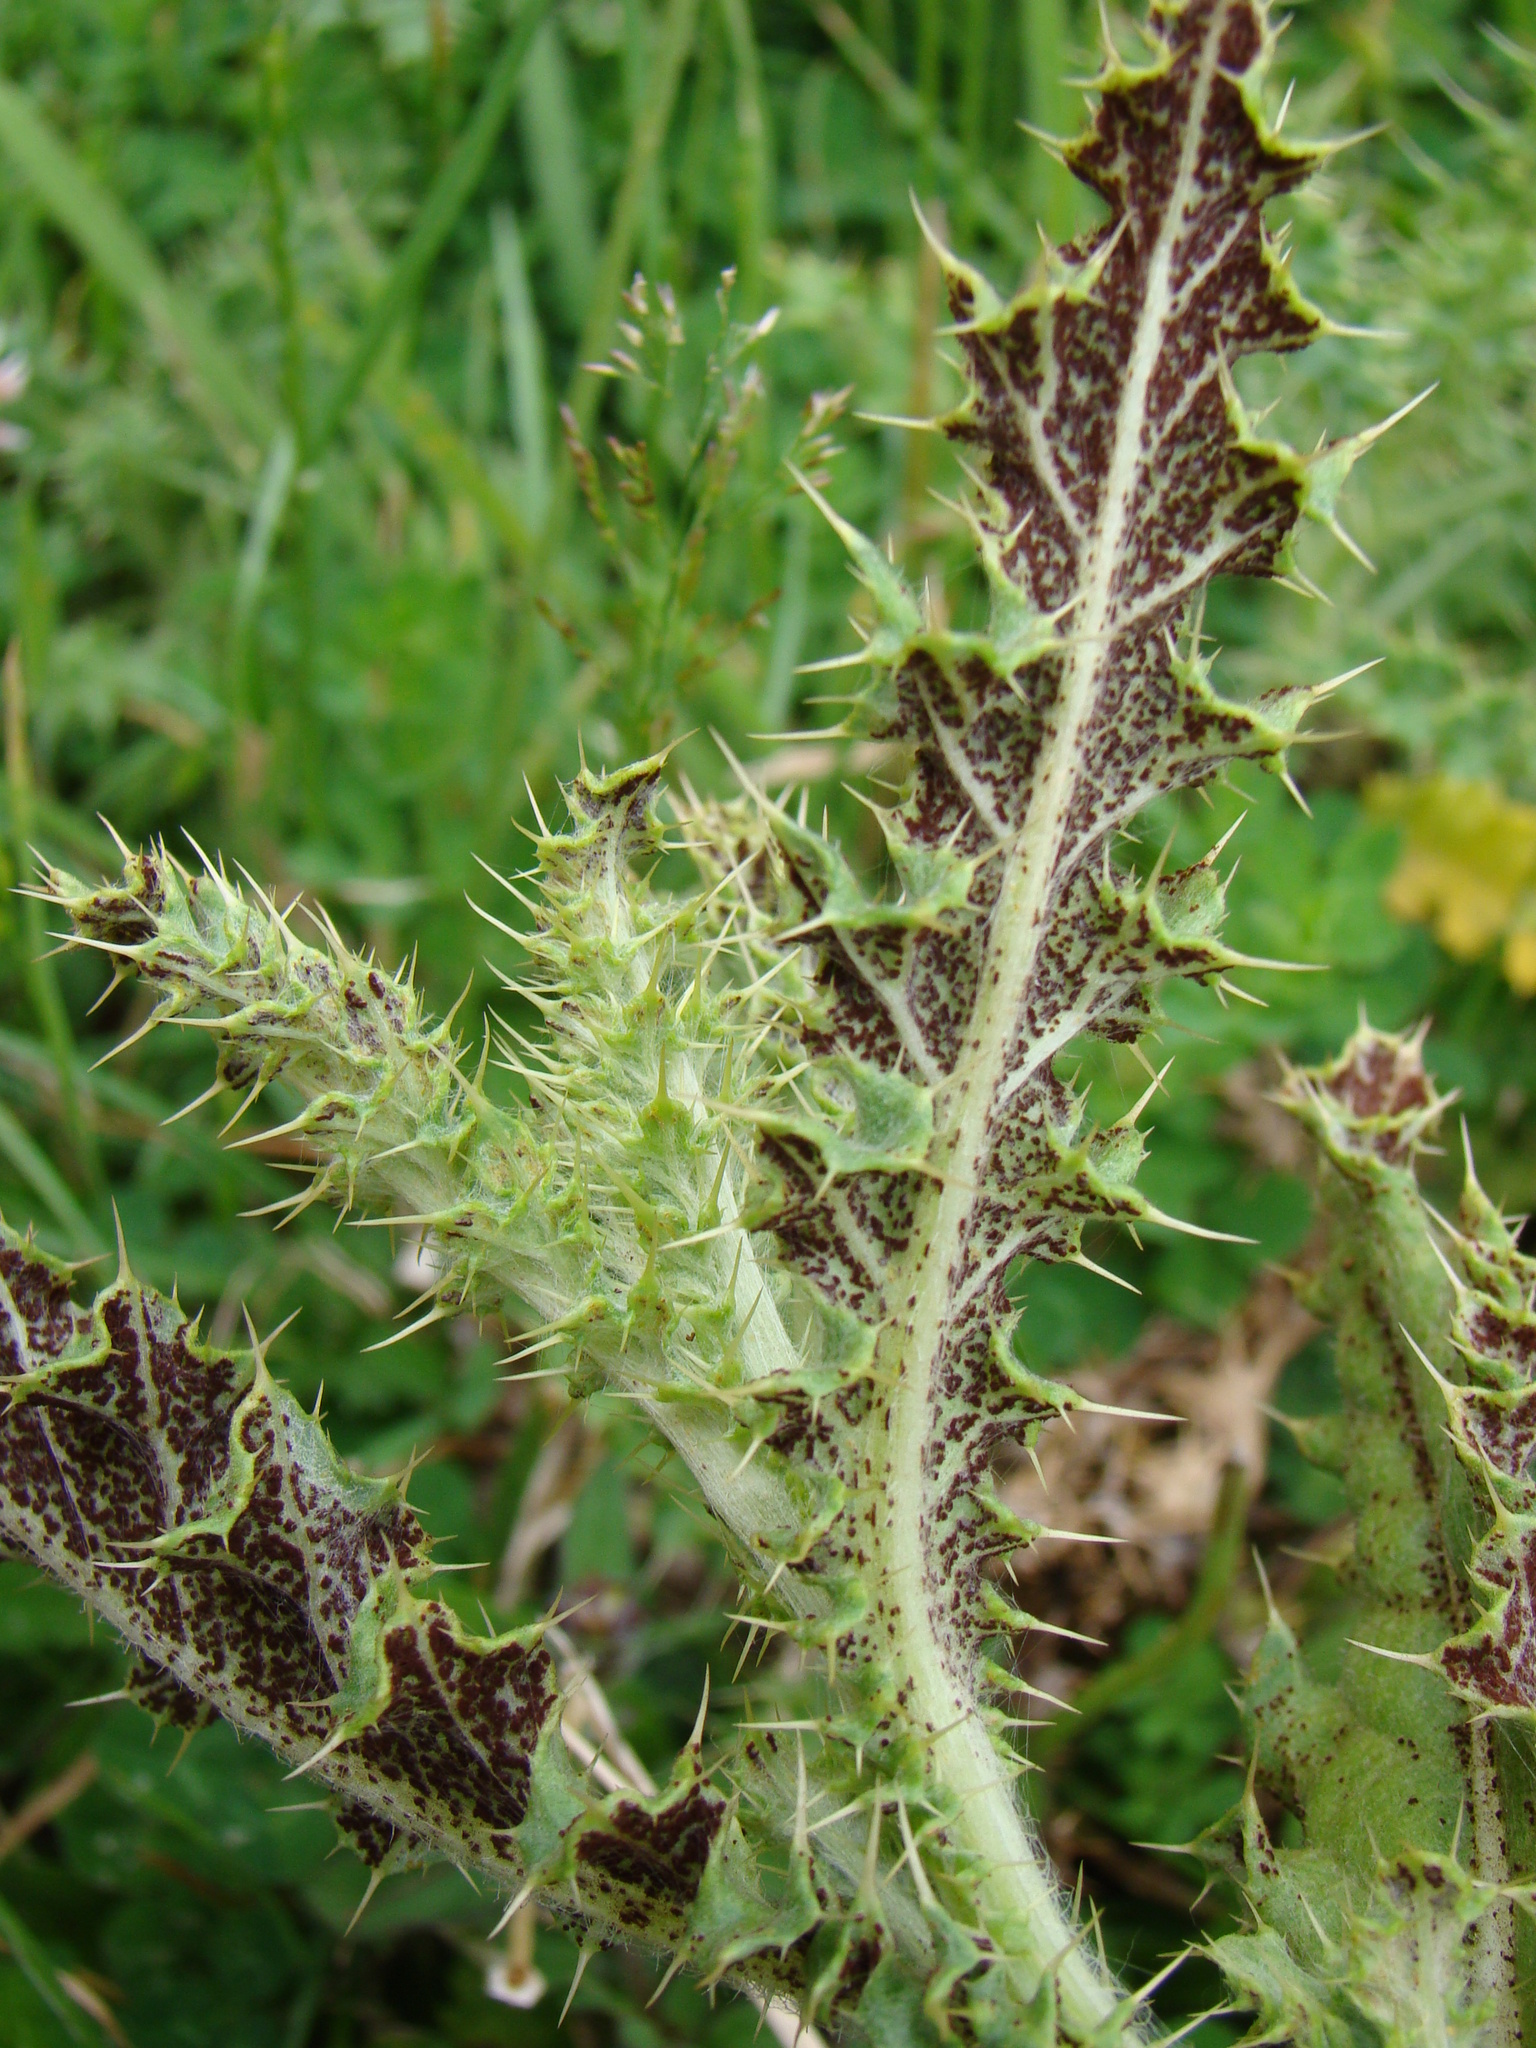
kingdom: Fungi
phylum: Basidiomycota
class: Pucciniomycetes
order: Pucciniales
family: Pucciniaceae
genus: Puccinia
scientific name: Puccinia suaveolens
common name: Thistle rust
